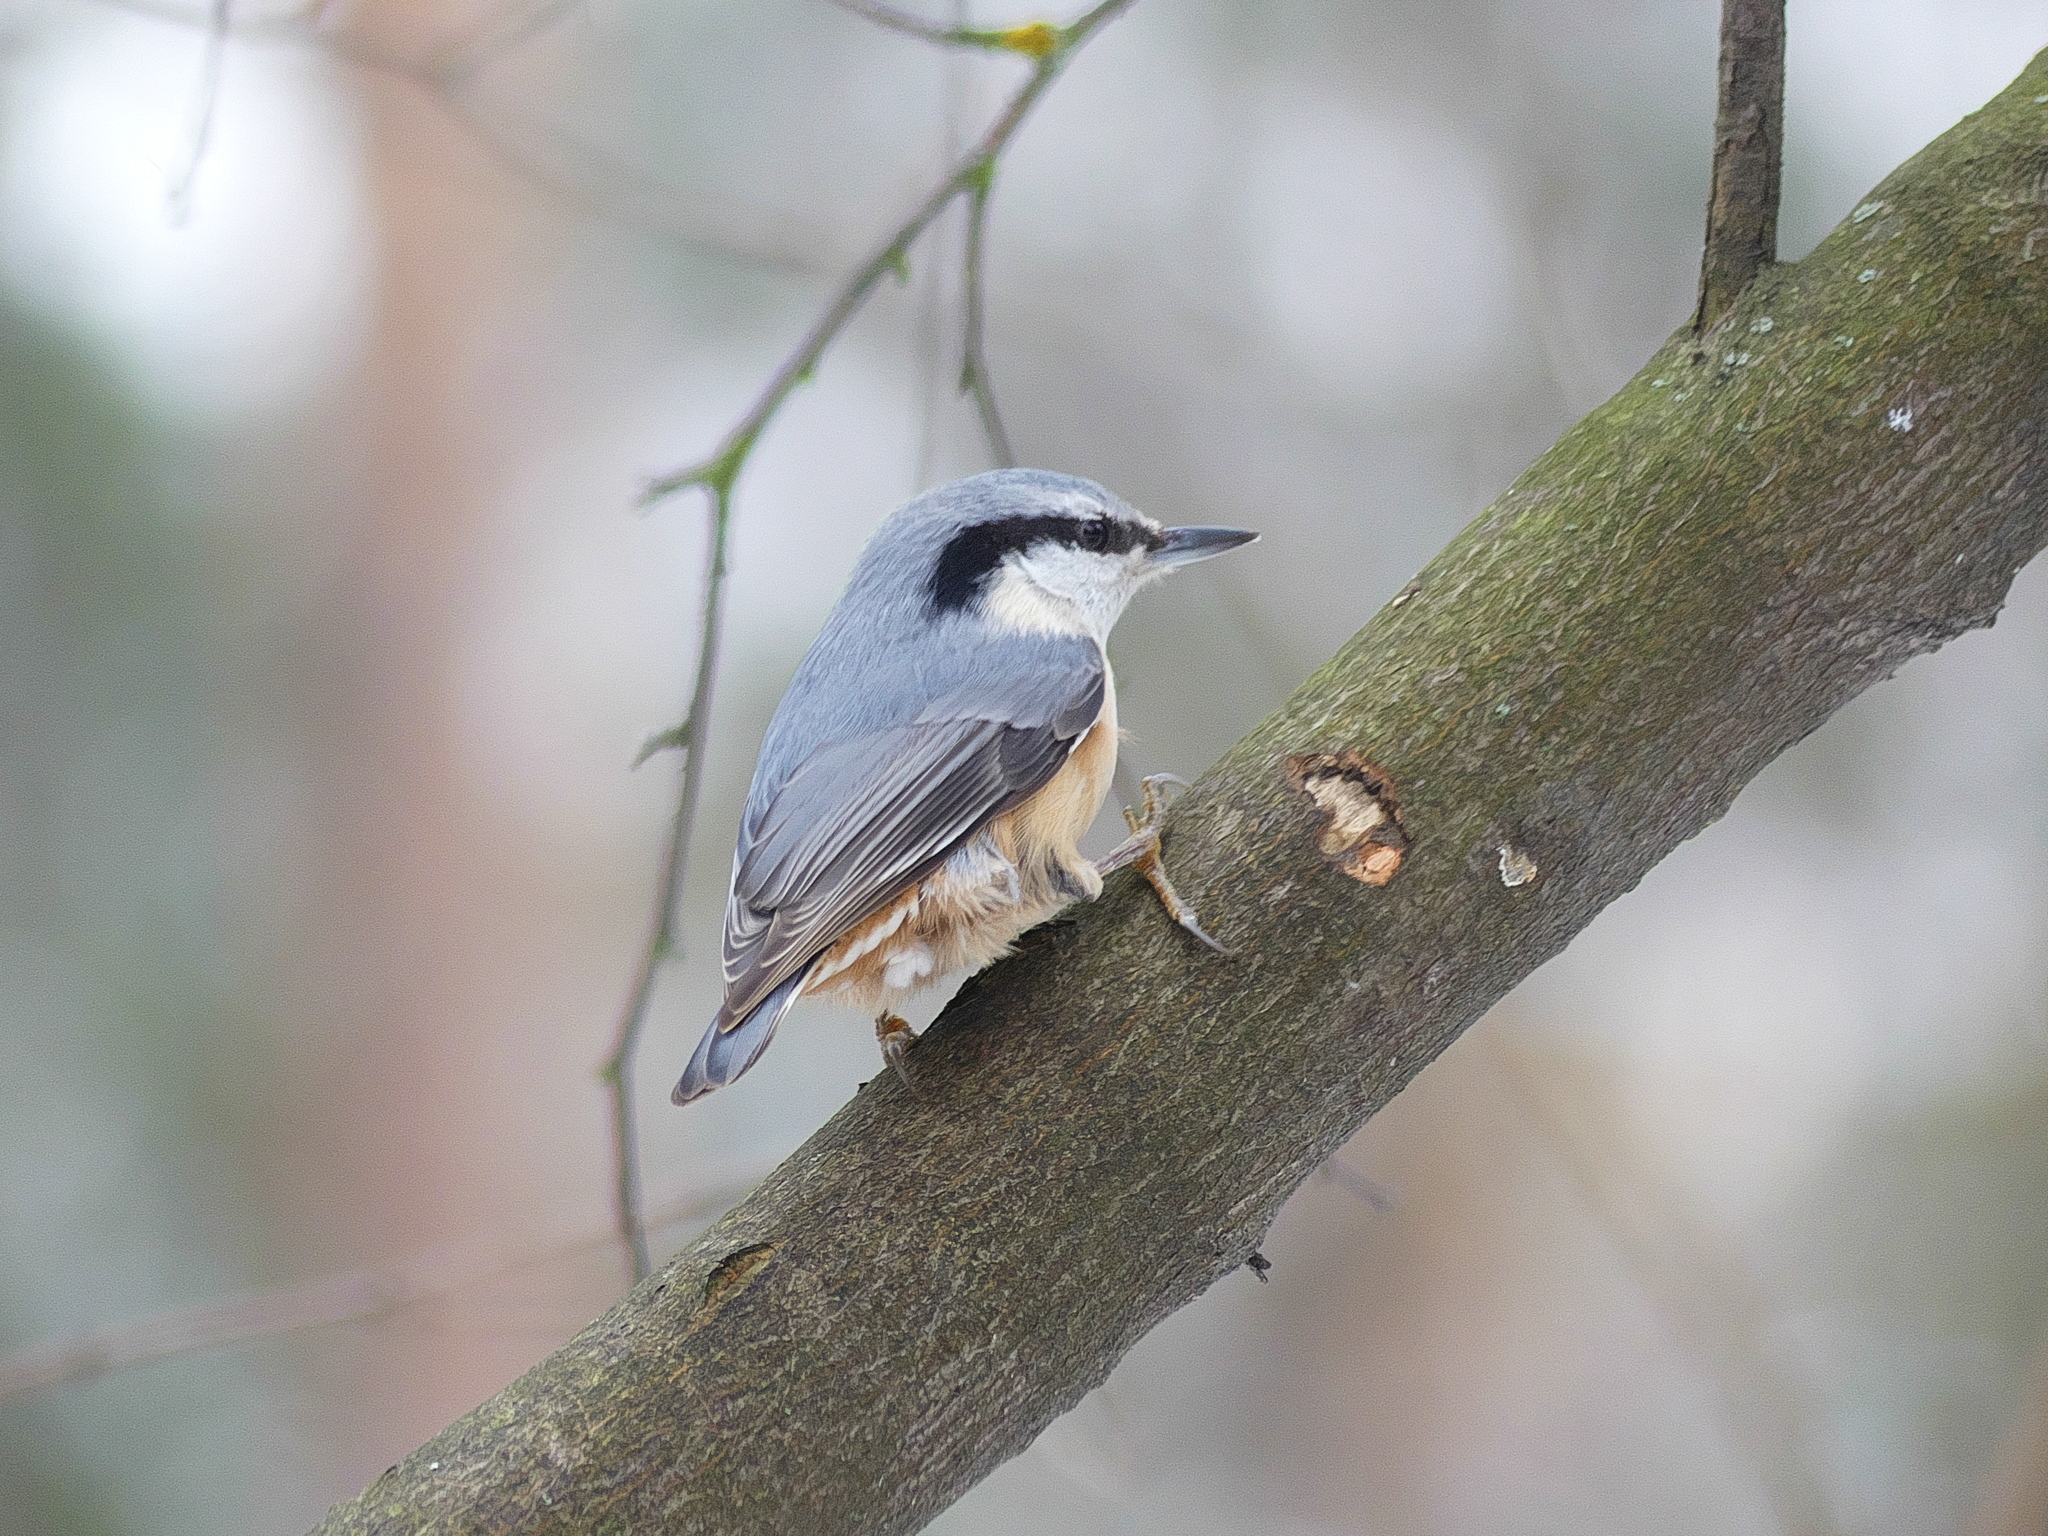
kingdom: Animalia
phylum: Chordata
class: Aves
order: Passeriformes
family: Sittidae
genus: Sitta
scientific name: Sitta europaea
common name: Eurasian nuthatch
